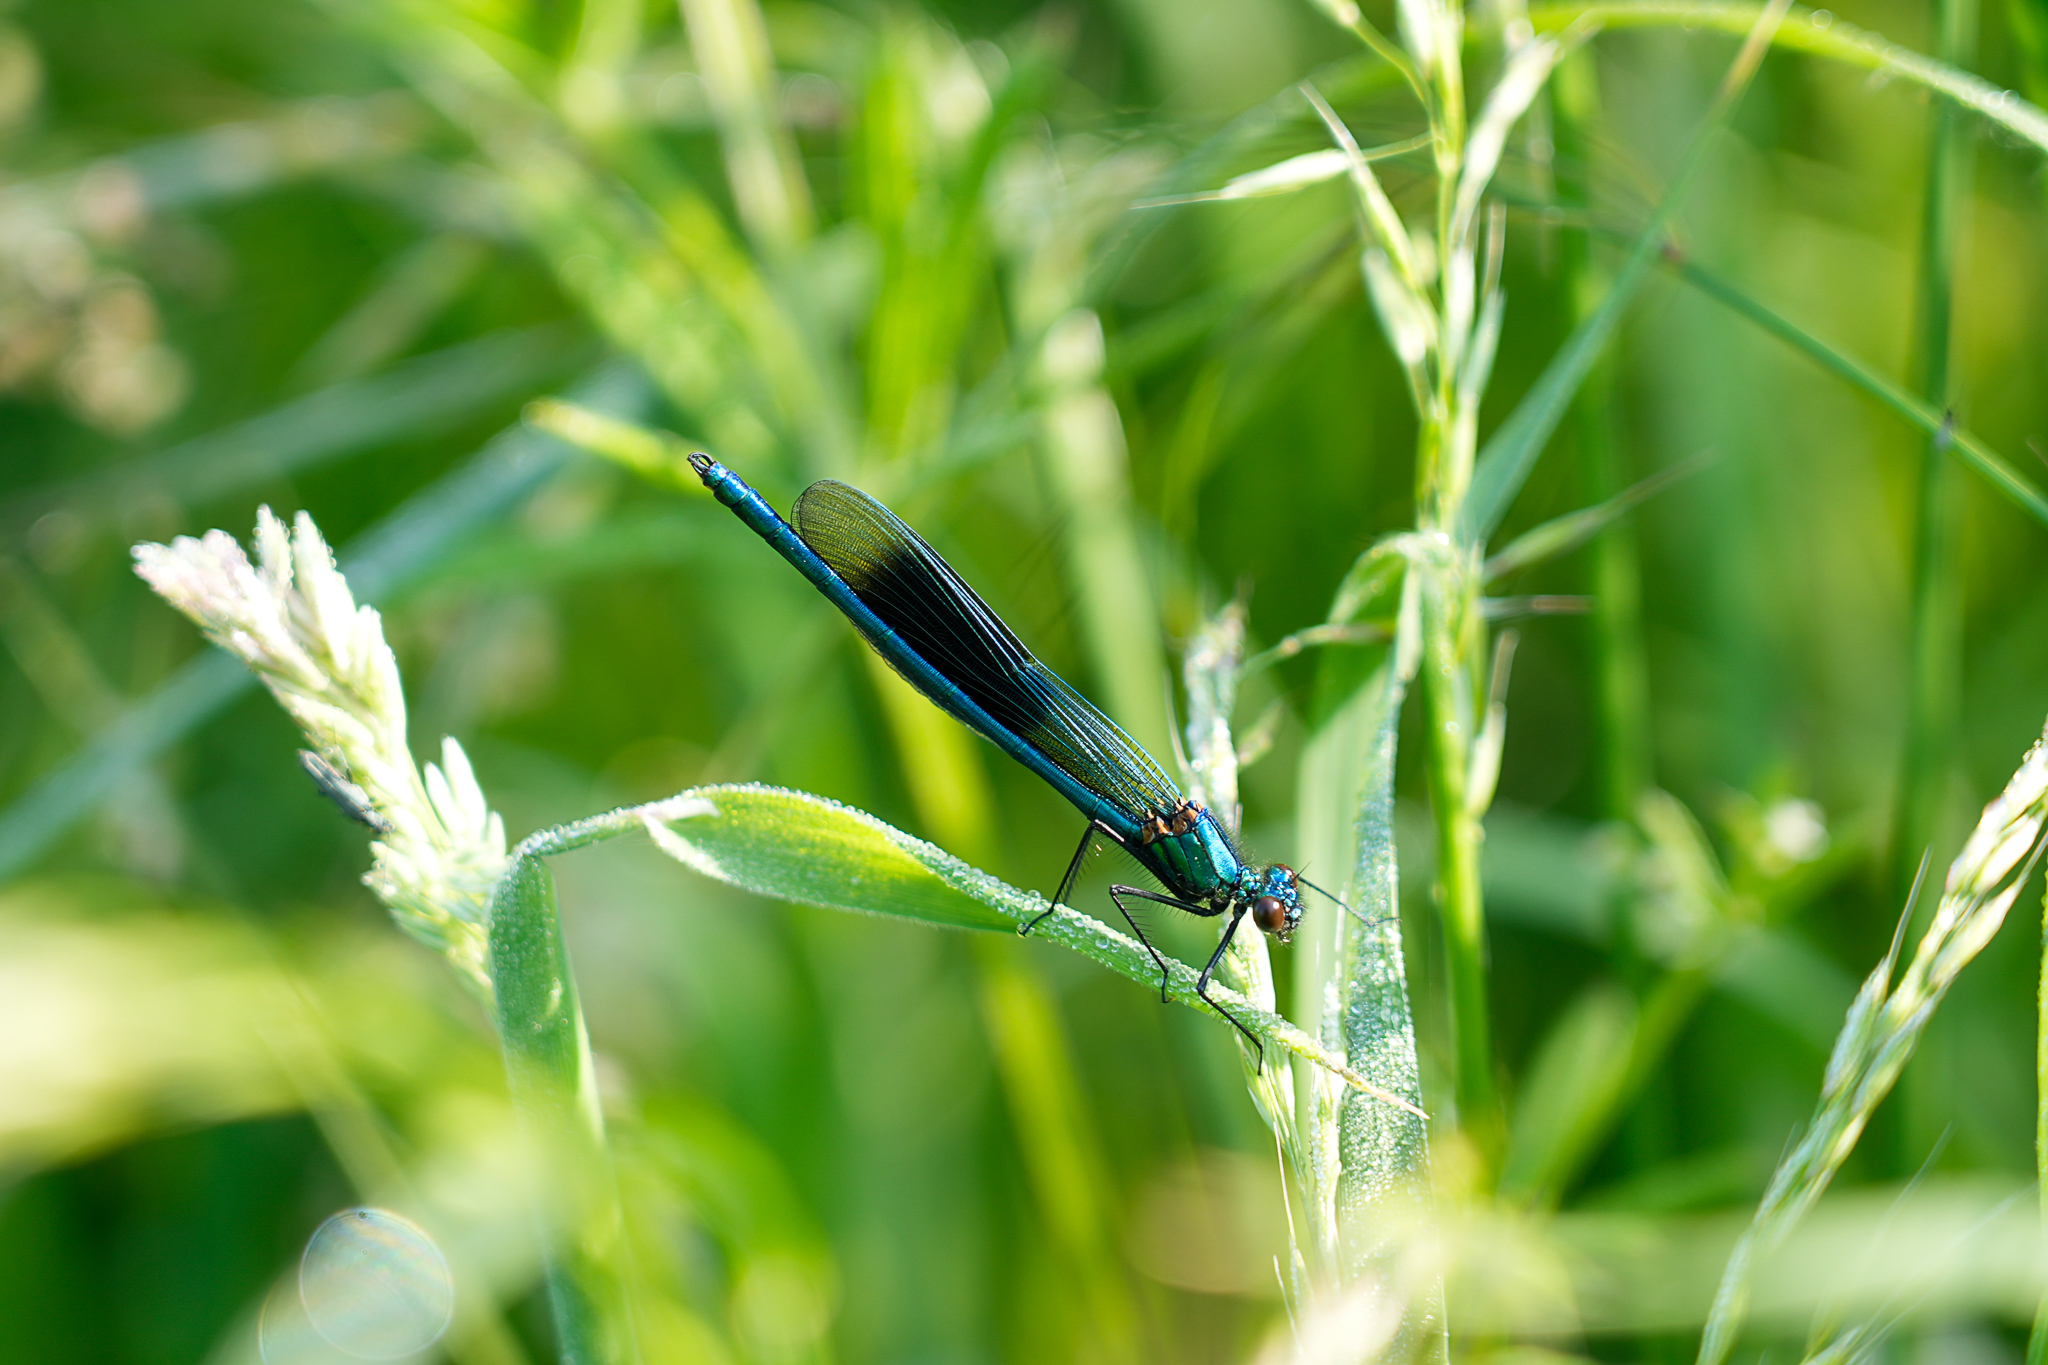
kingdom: Animalia
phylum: Arthropoda
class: Insecta
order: Odonata
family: Calopterygidae
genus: Calopteryx
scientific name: Calopteryx splendens
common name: Banded demoiselle
